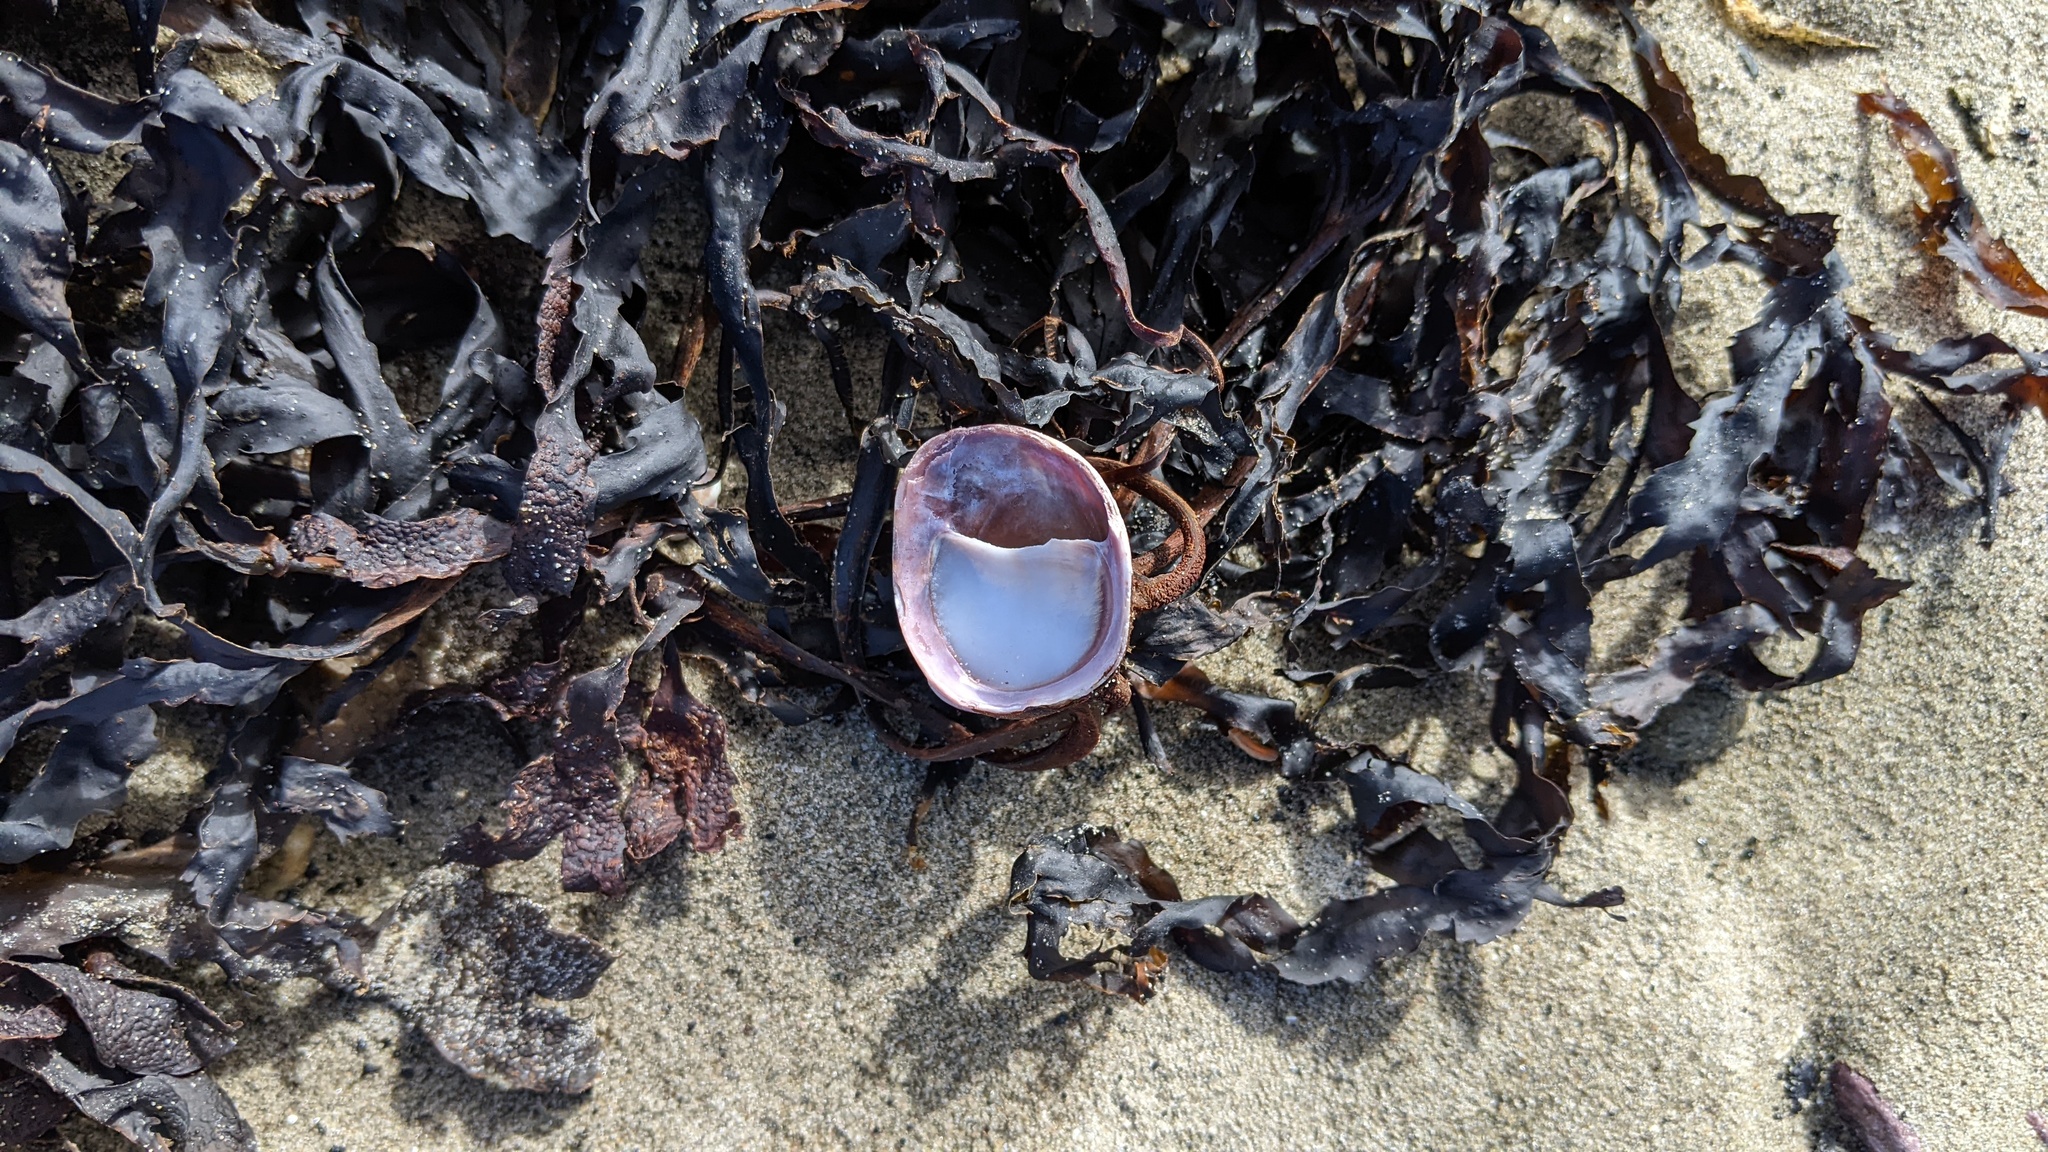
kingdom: Animalia
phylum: Mollusca
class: Gastropoda
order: Littorinimorpha
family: Calyptraeidae
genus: Crepidula
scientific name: Crepidula fornicata
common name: Slipper limpet
